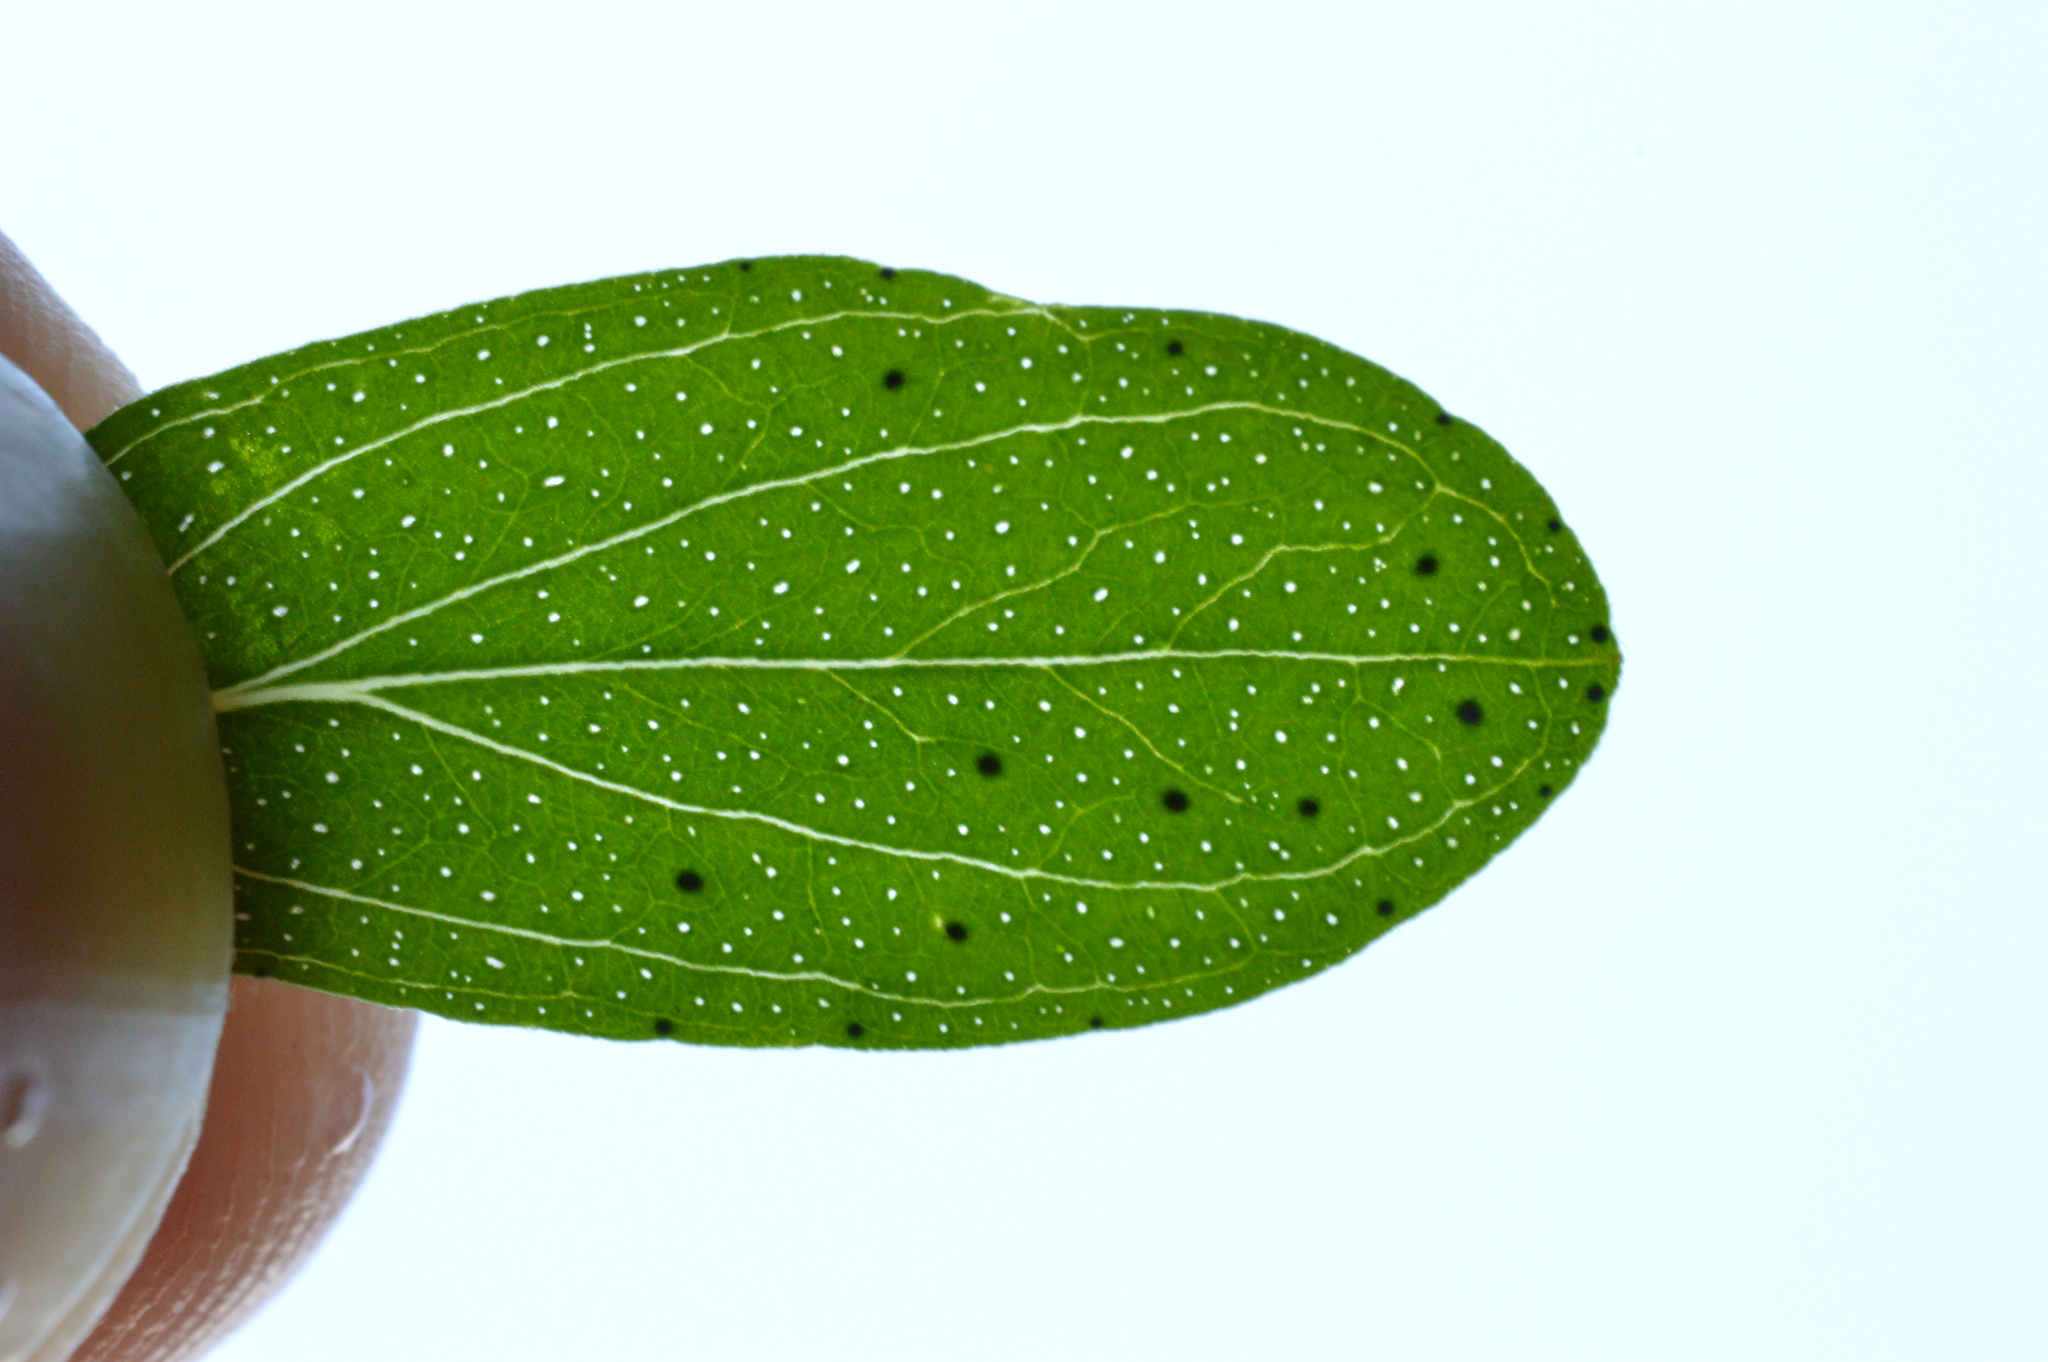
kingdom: Plantae
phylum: Tracheophyta
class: Magnoliopsida
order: Malpighiales
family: Hypericaceae
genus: Hypericum
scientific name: Hypericum perforatum
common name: Common st. johnswort
